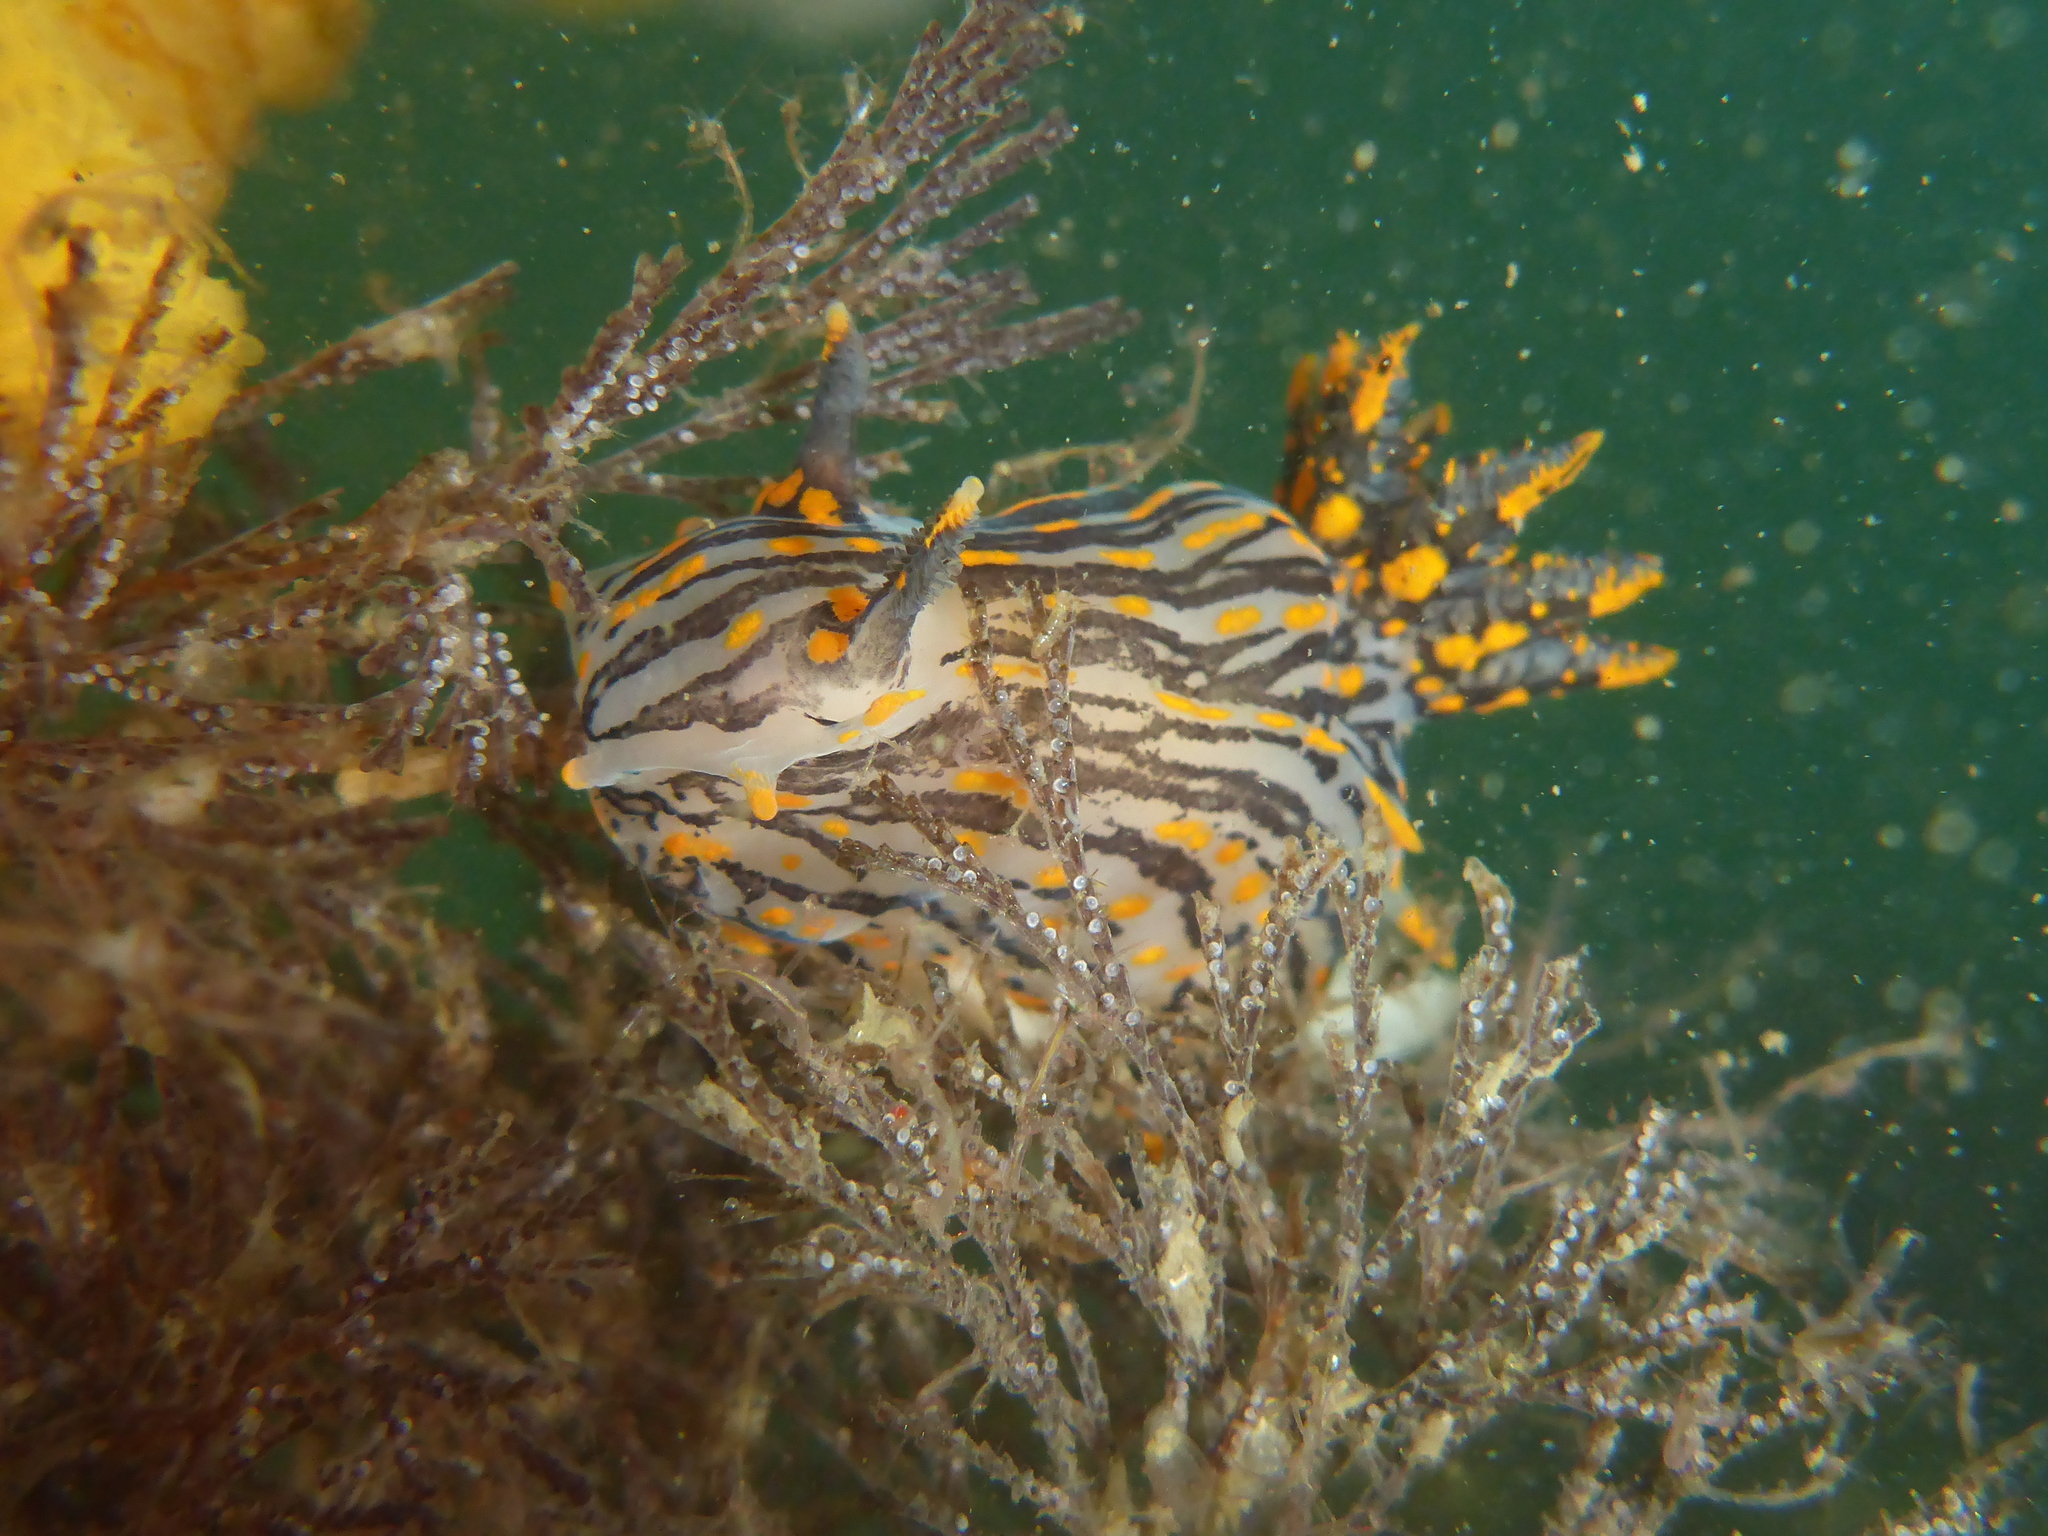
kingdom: Animalia
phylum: Mollusca
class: Gastropoda
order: Nudibranchia
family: Polyceridae
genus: Polycera
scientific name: Polycera atra
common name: Orange-spike polycera
